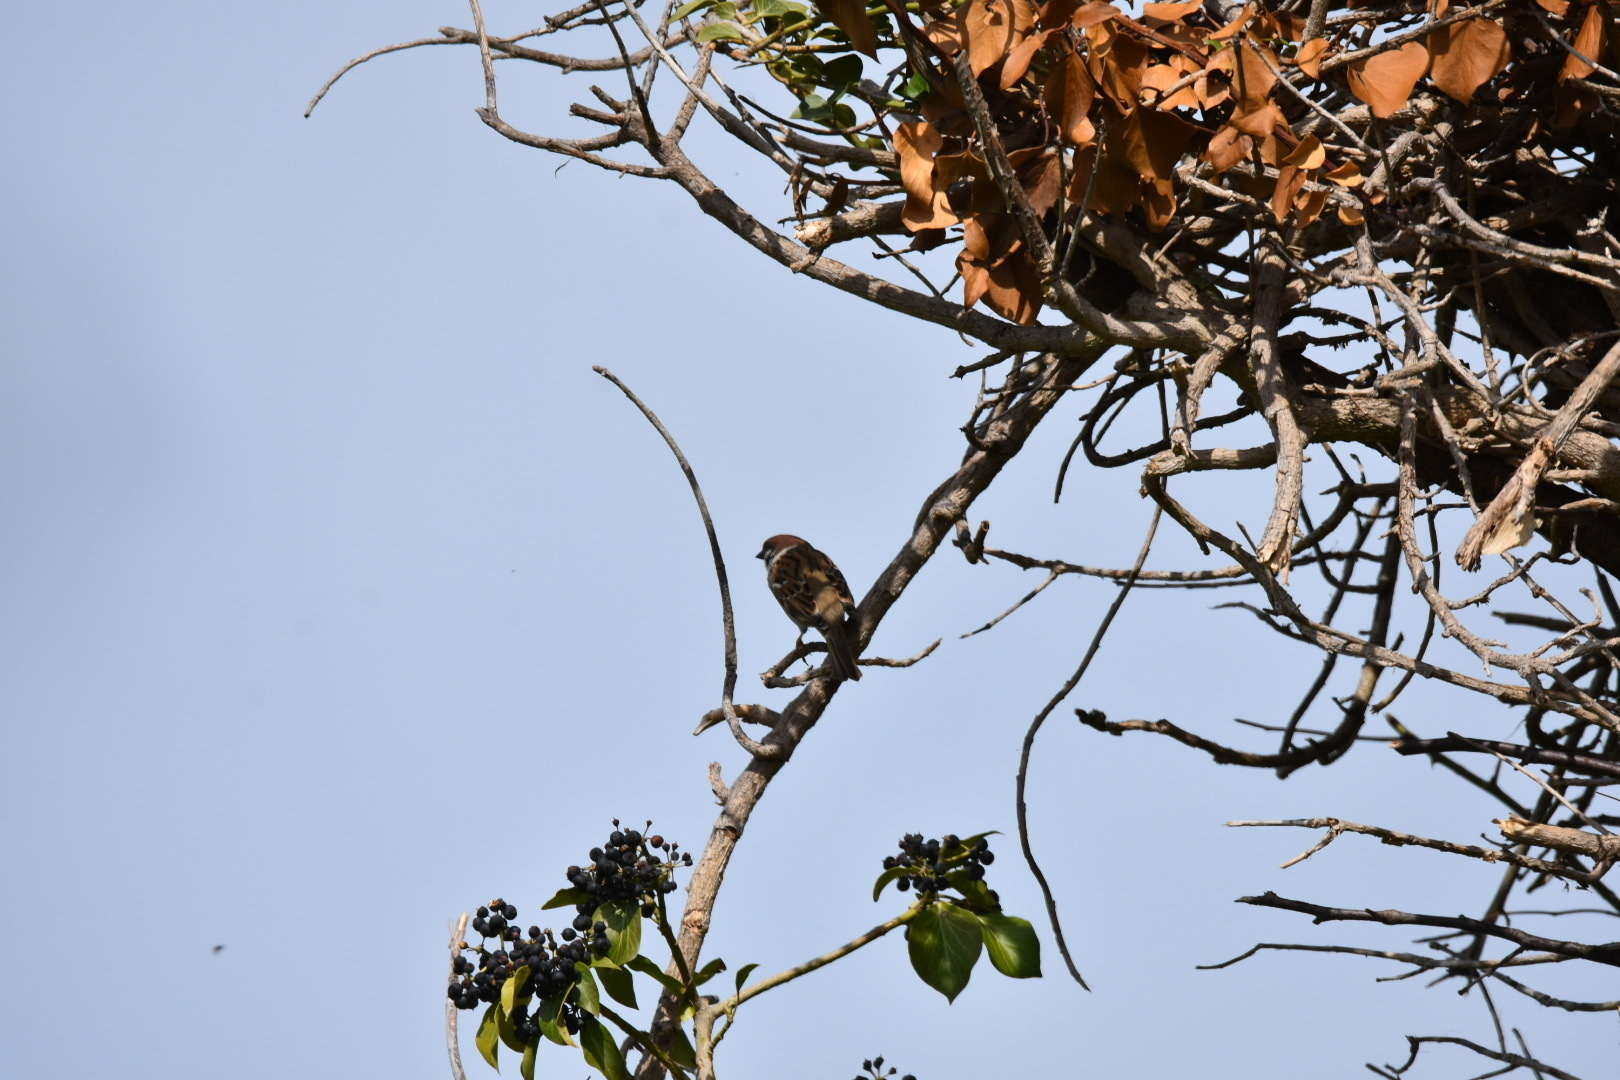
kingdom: Animalia
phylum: Chordata
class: Aves
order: Passeriformes
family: Passeridae
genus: Passer
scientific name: Passer montanus
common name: Eurasian tree sparrow
